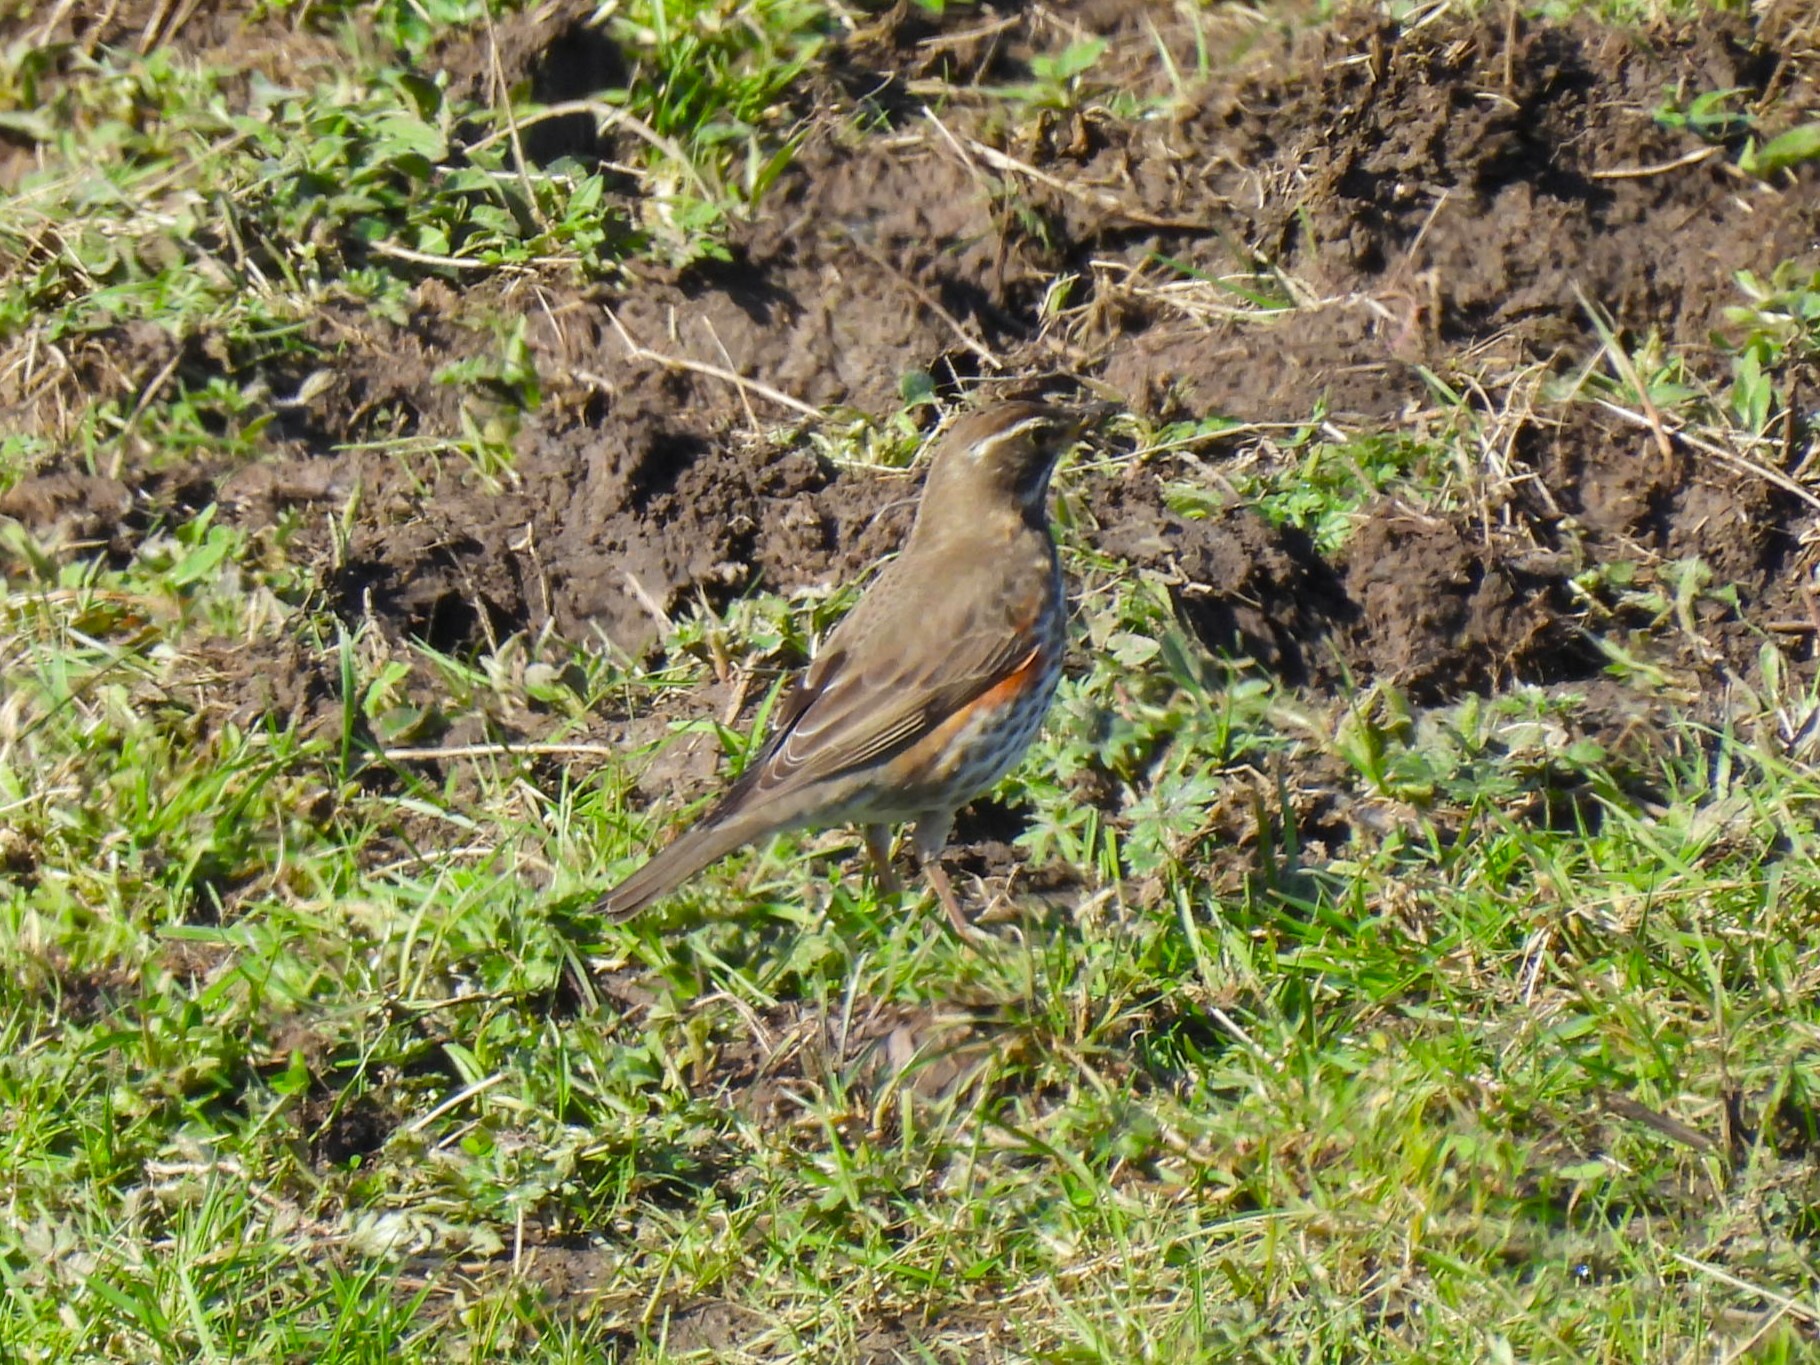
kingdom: Animalia
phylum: Chordata
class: Aves
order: Passeriformes
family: Turdidae
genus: Turdus
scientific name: Turdus iliacus
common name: Redwing
